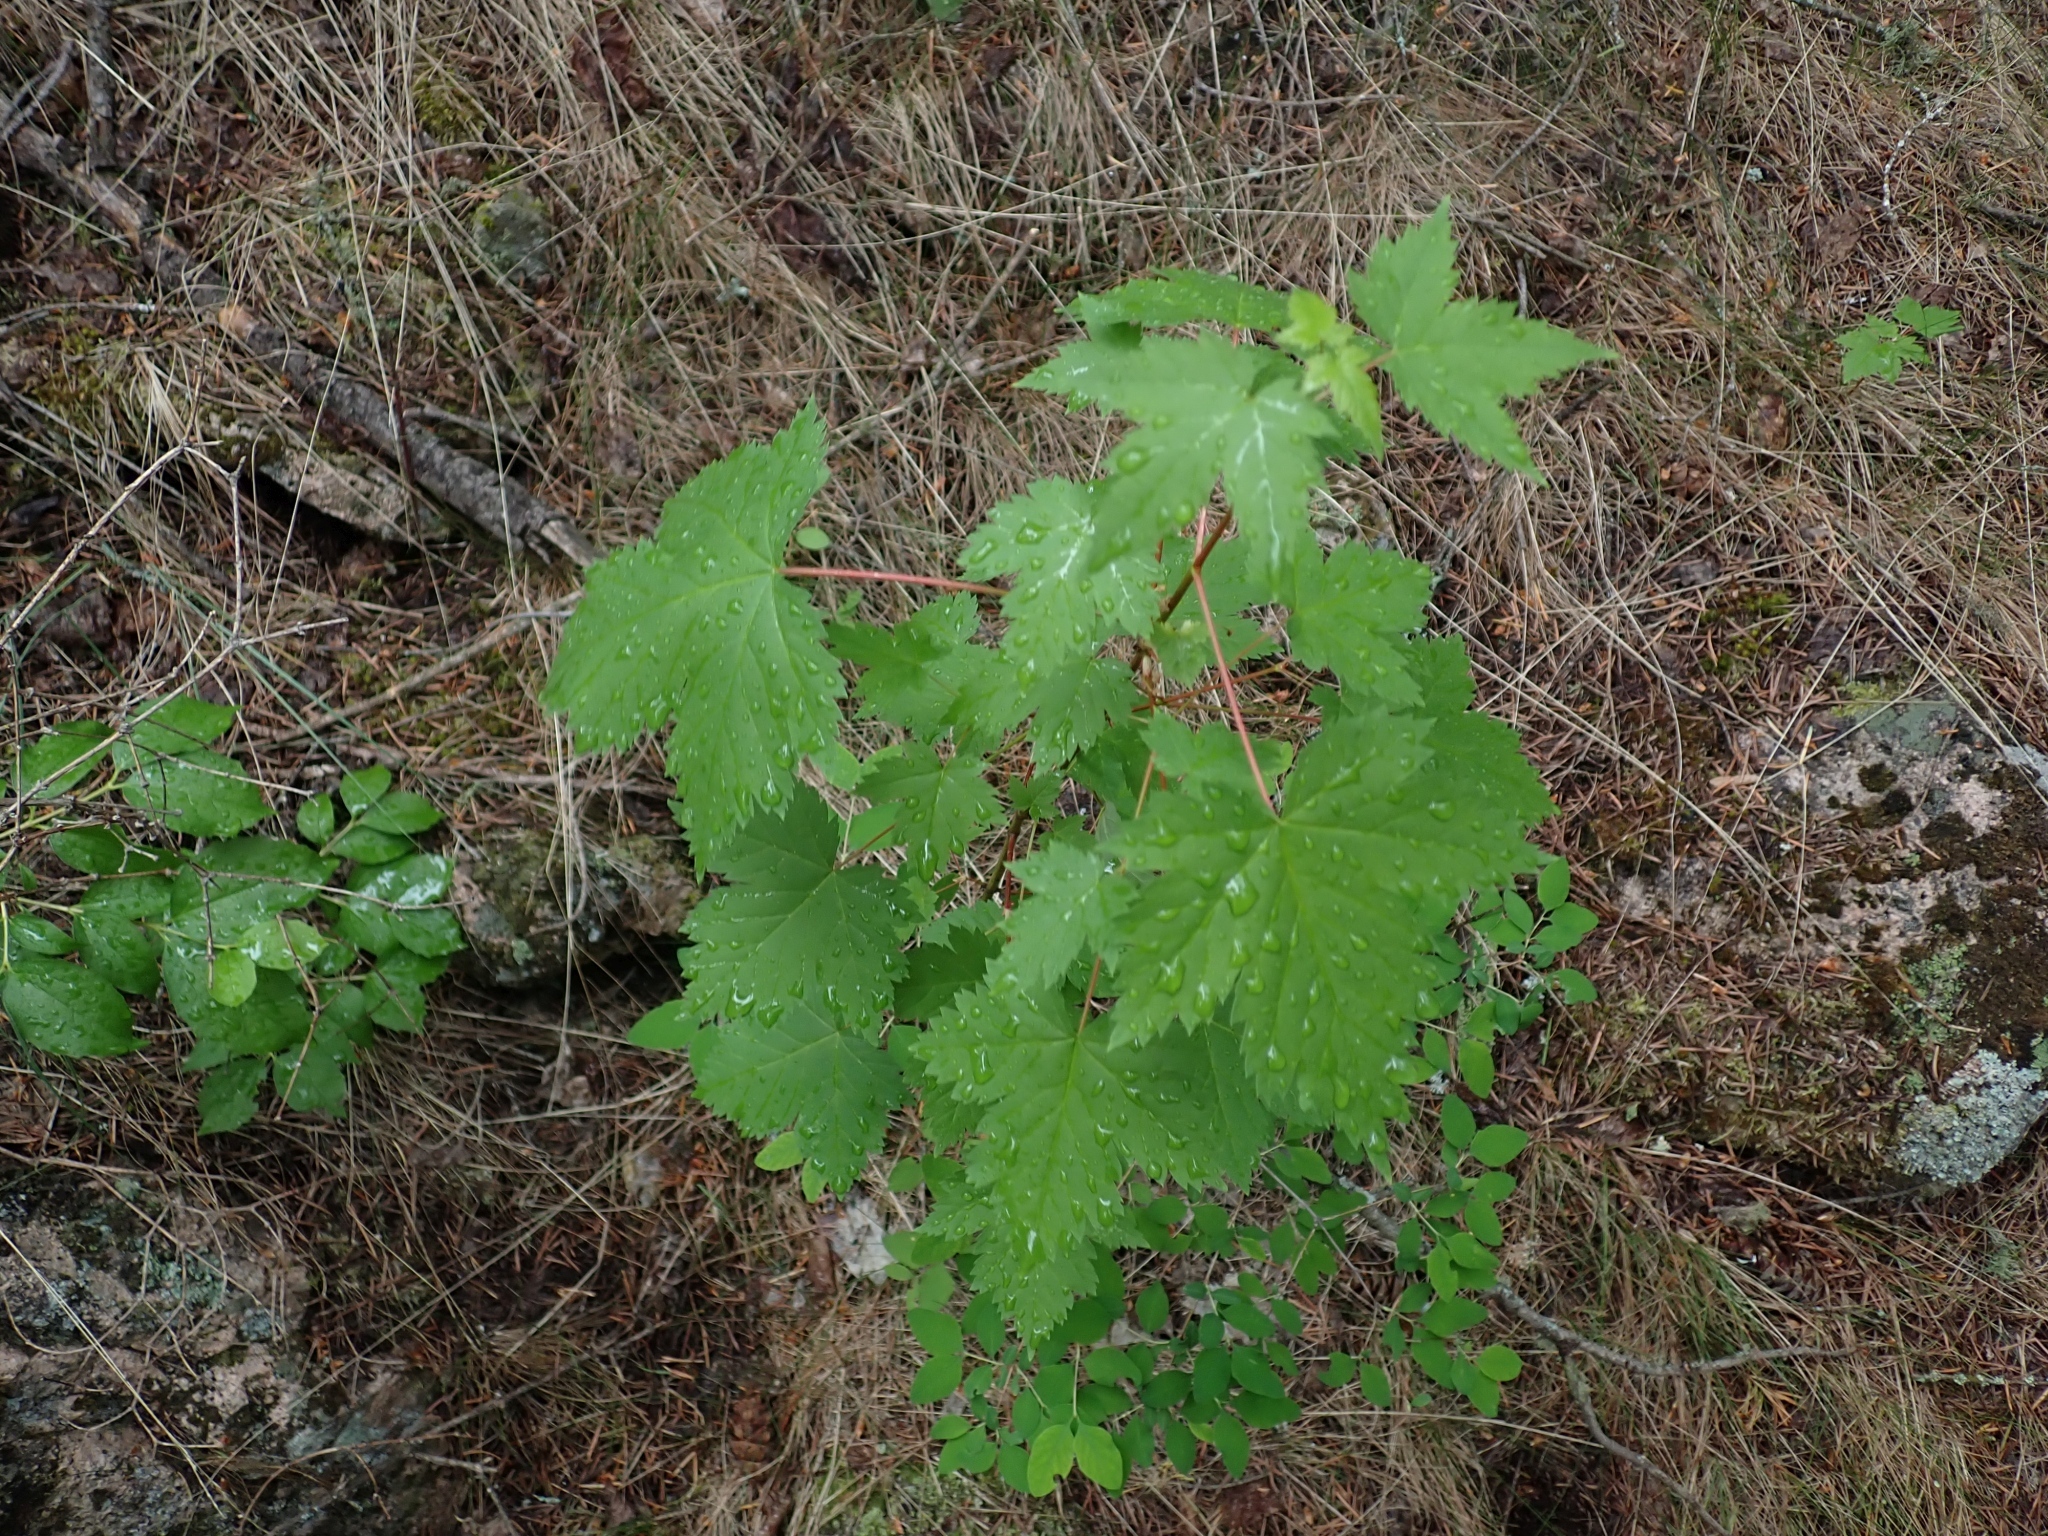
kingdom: Plantae
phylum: Tracheophyta
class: Magnoliopsida
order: Sapindales
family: Sapindaceae
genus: Acer
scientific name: Acer glabrum
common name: Rocky mountain maple
